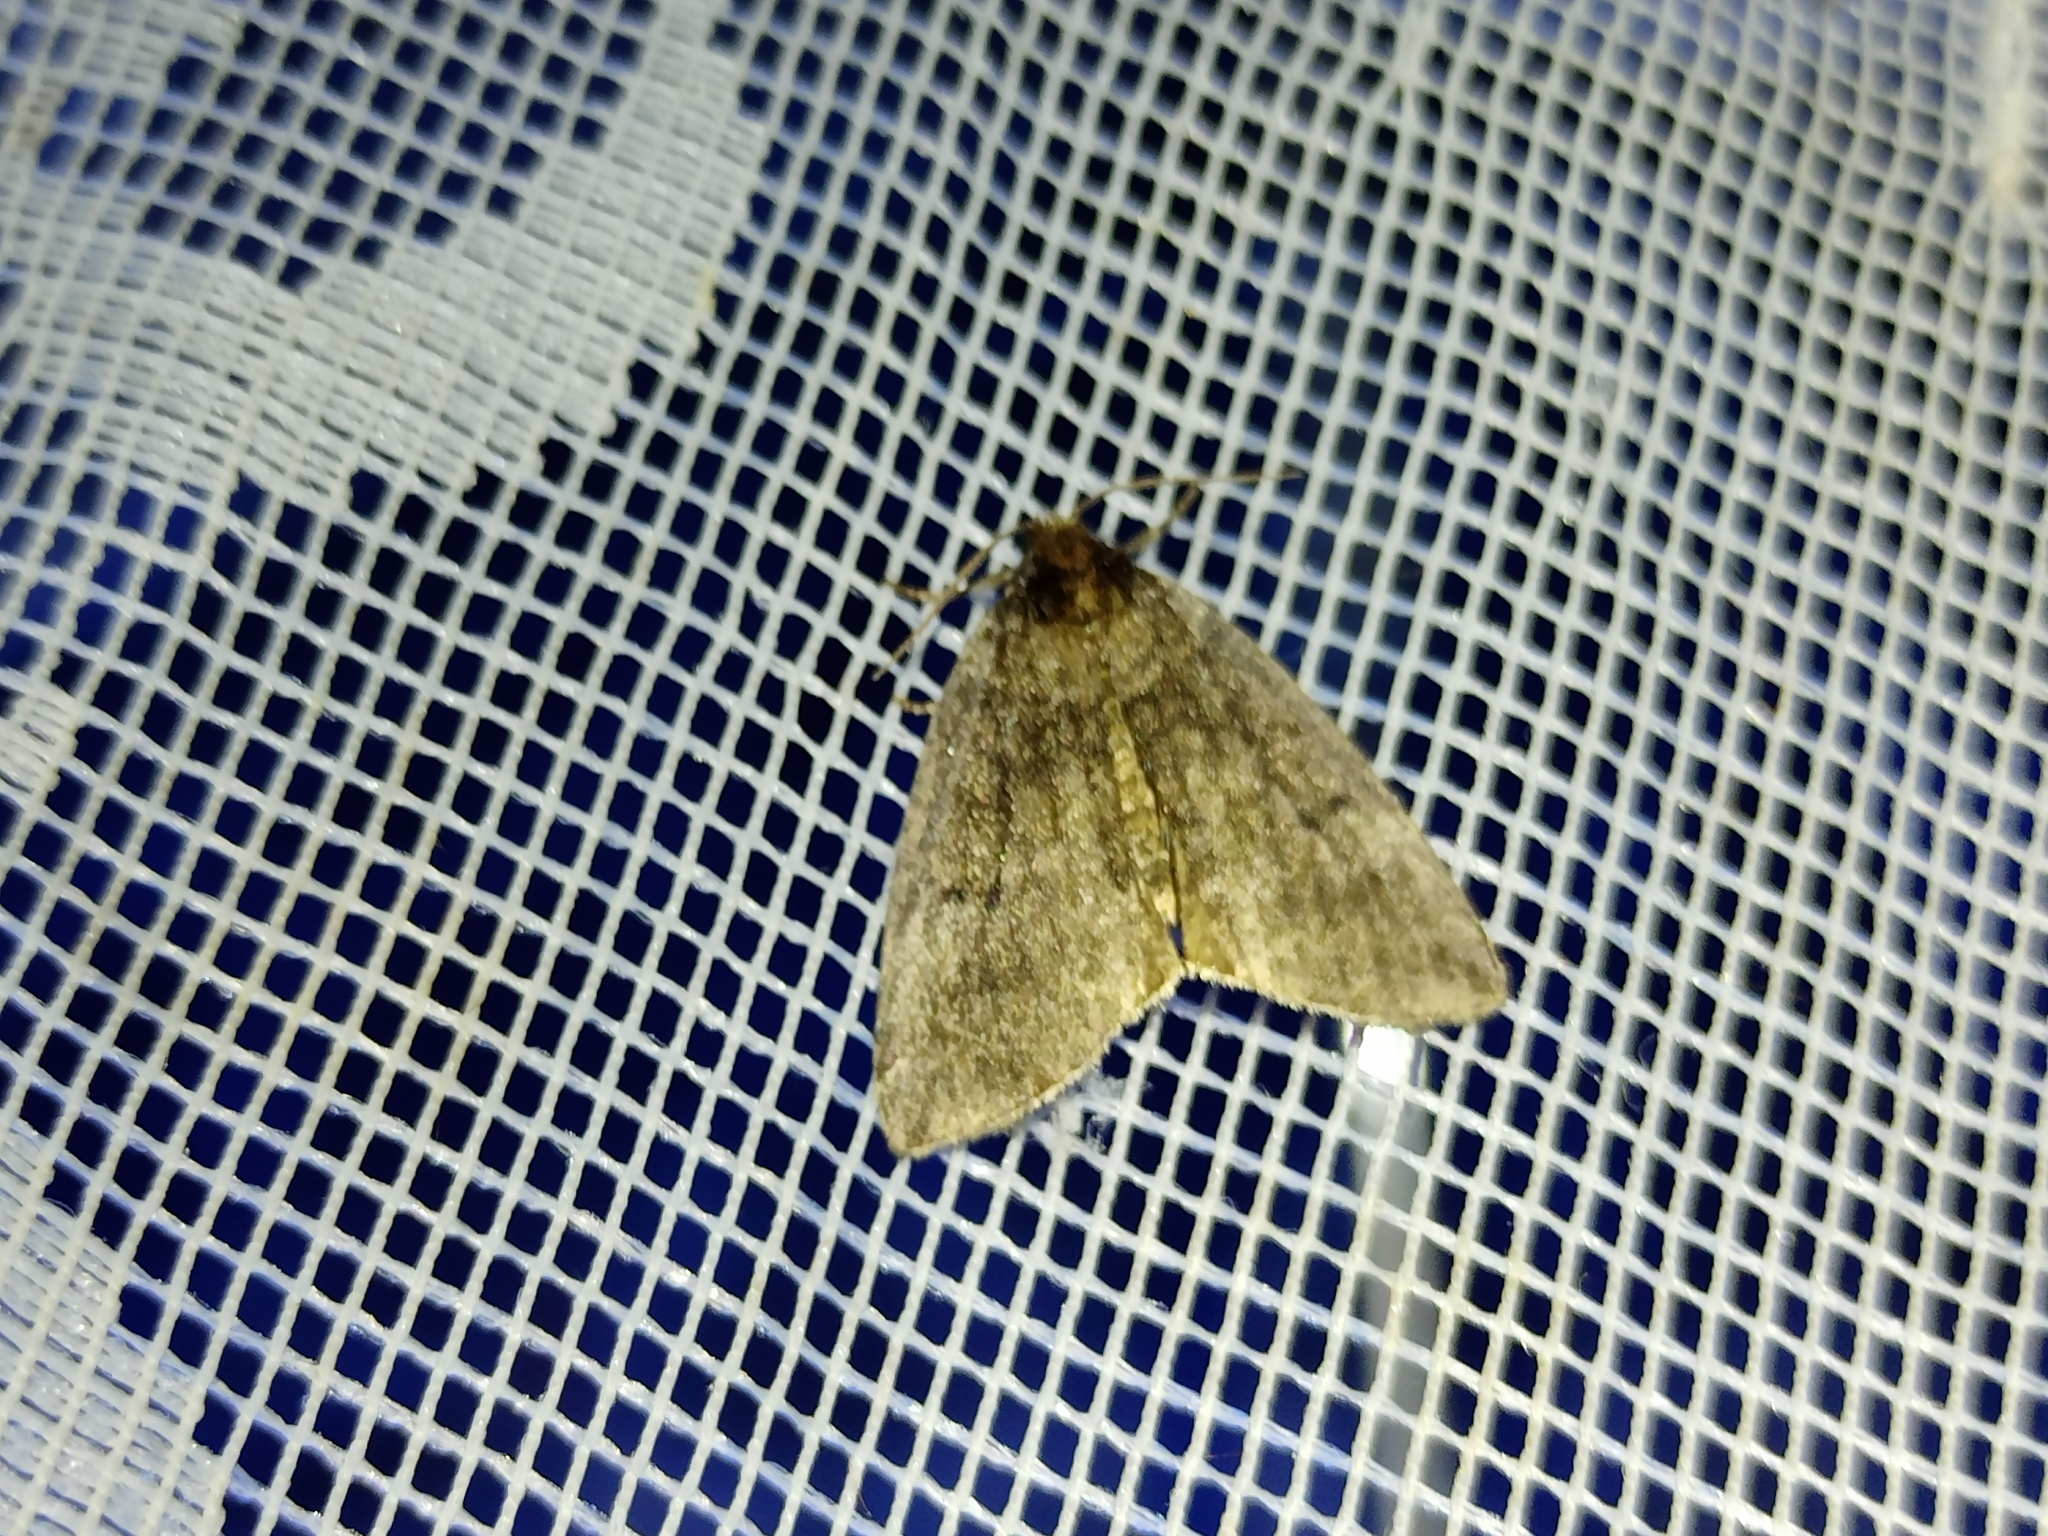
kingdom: Animalia
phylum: Arthropoda
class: Insecta
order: Lepidoptera
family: Drepanidae
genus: Ochropacha
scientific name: Ochropacha duplaris
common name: Common lutestring
